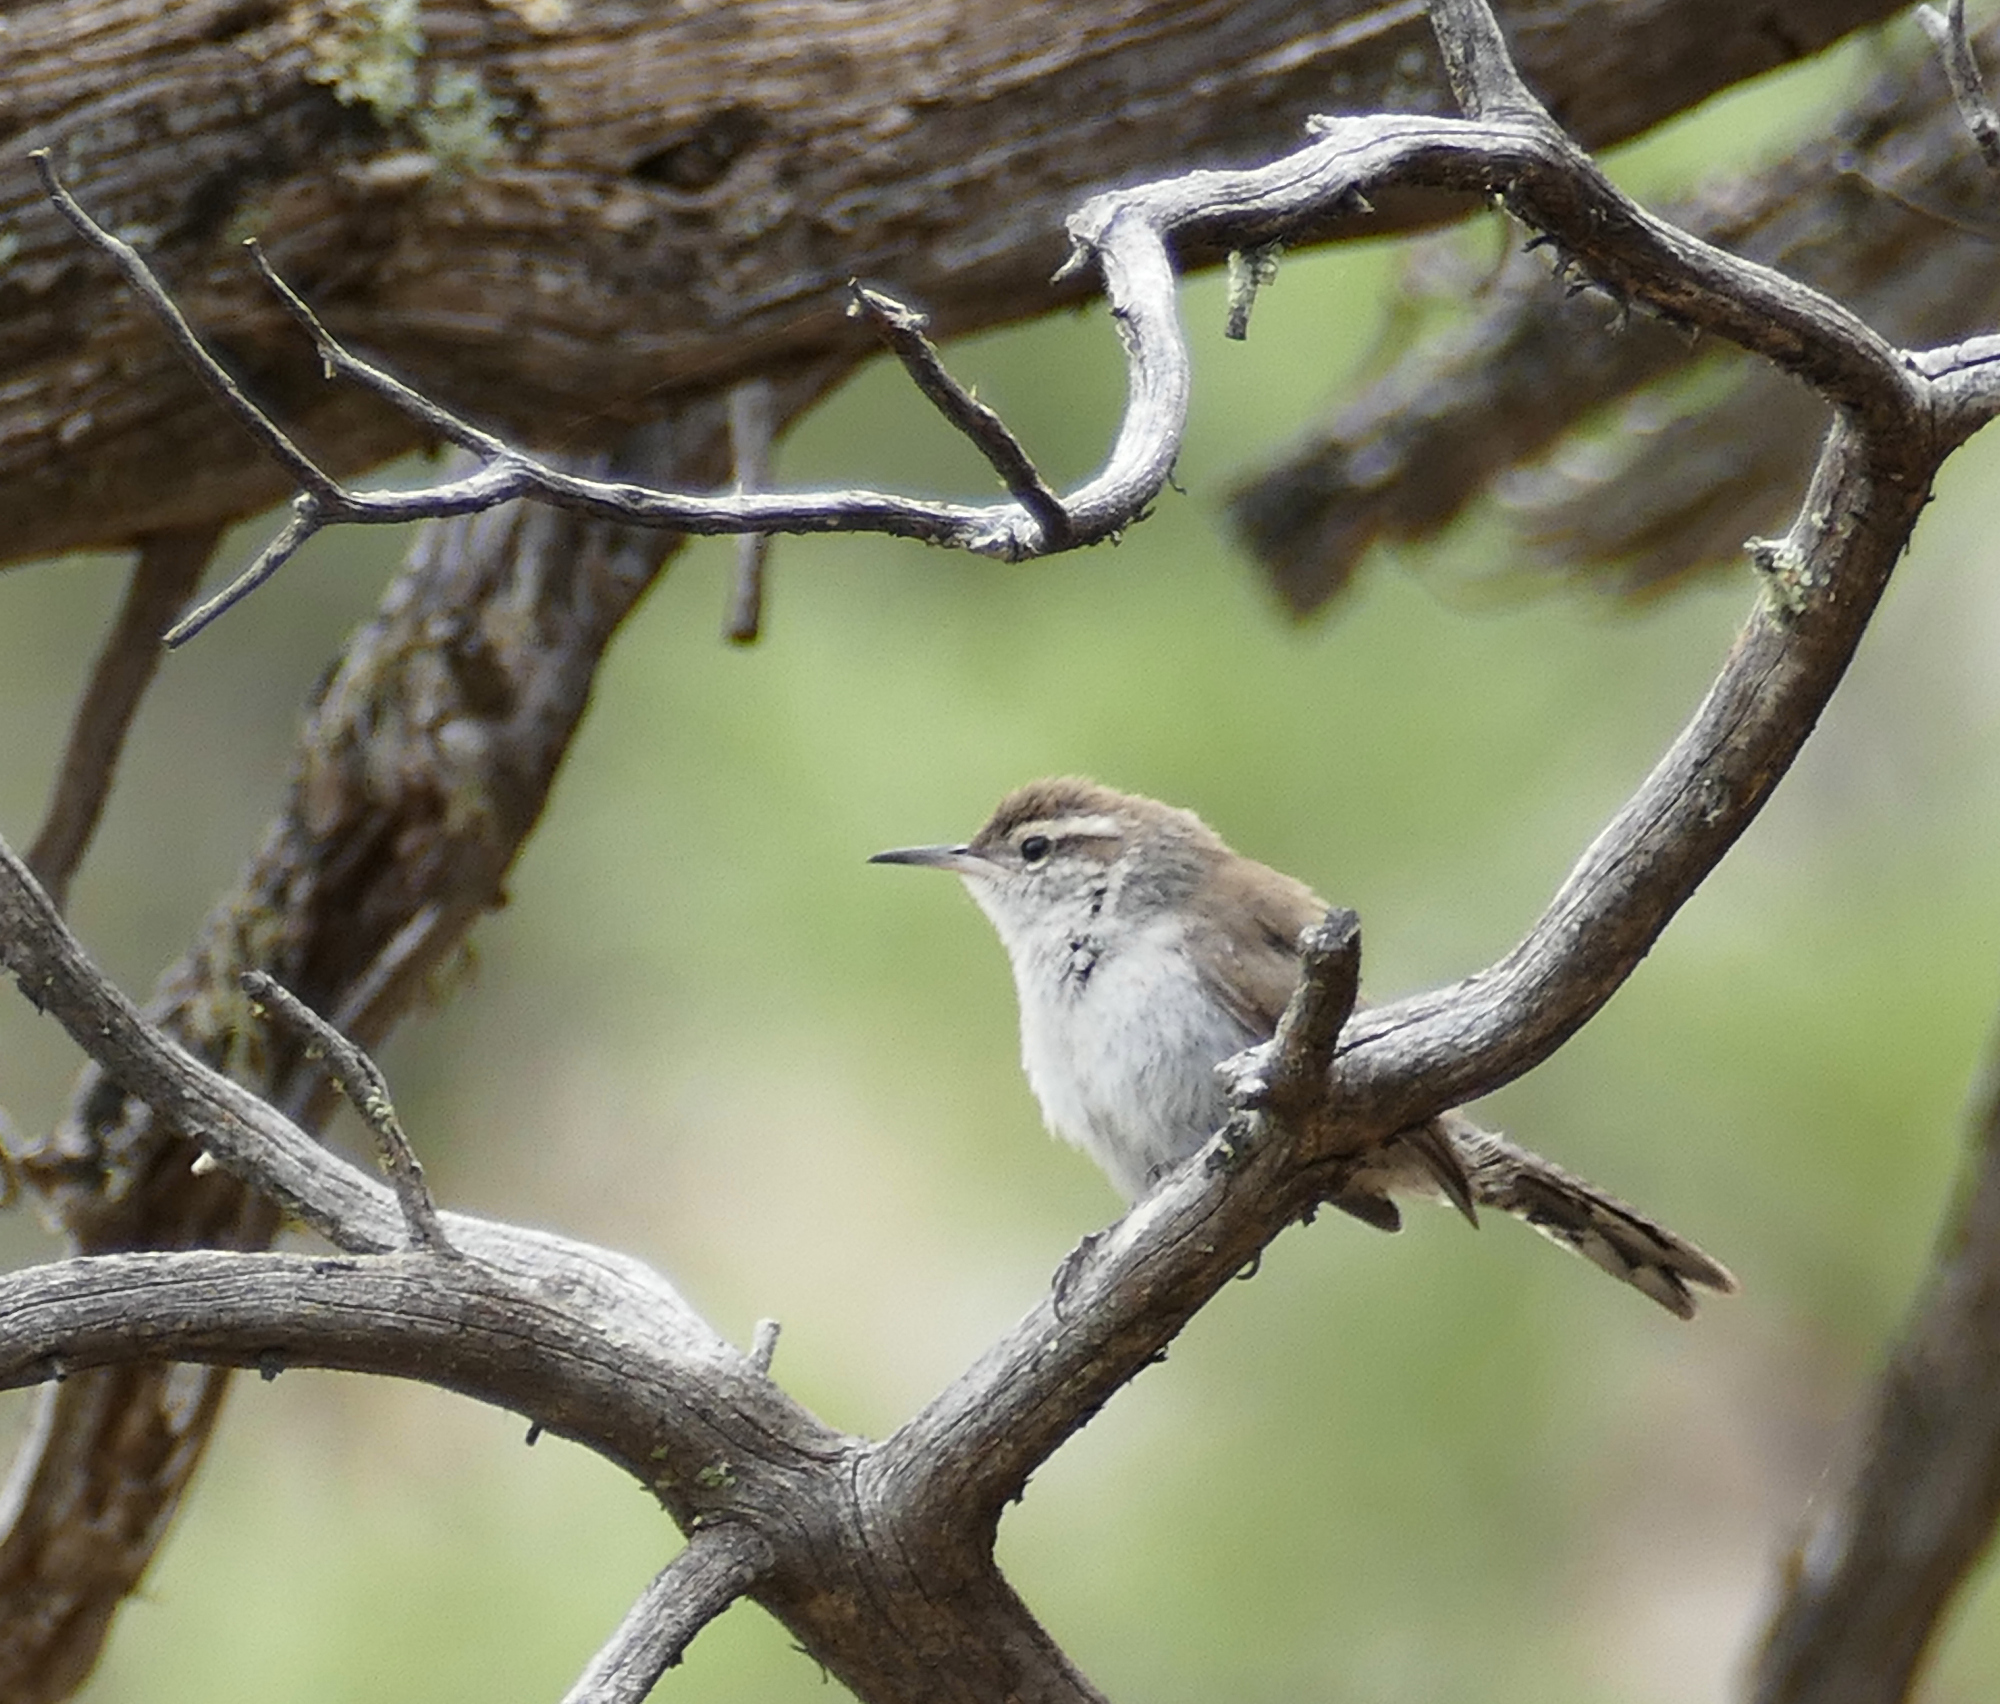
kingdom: Animalia
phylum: Chordata
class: Aves
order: Passeriformes
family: Troglodytidae
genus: Thryomanes
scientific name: Thryomanes bewickii
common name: Bewick's wren
